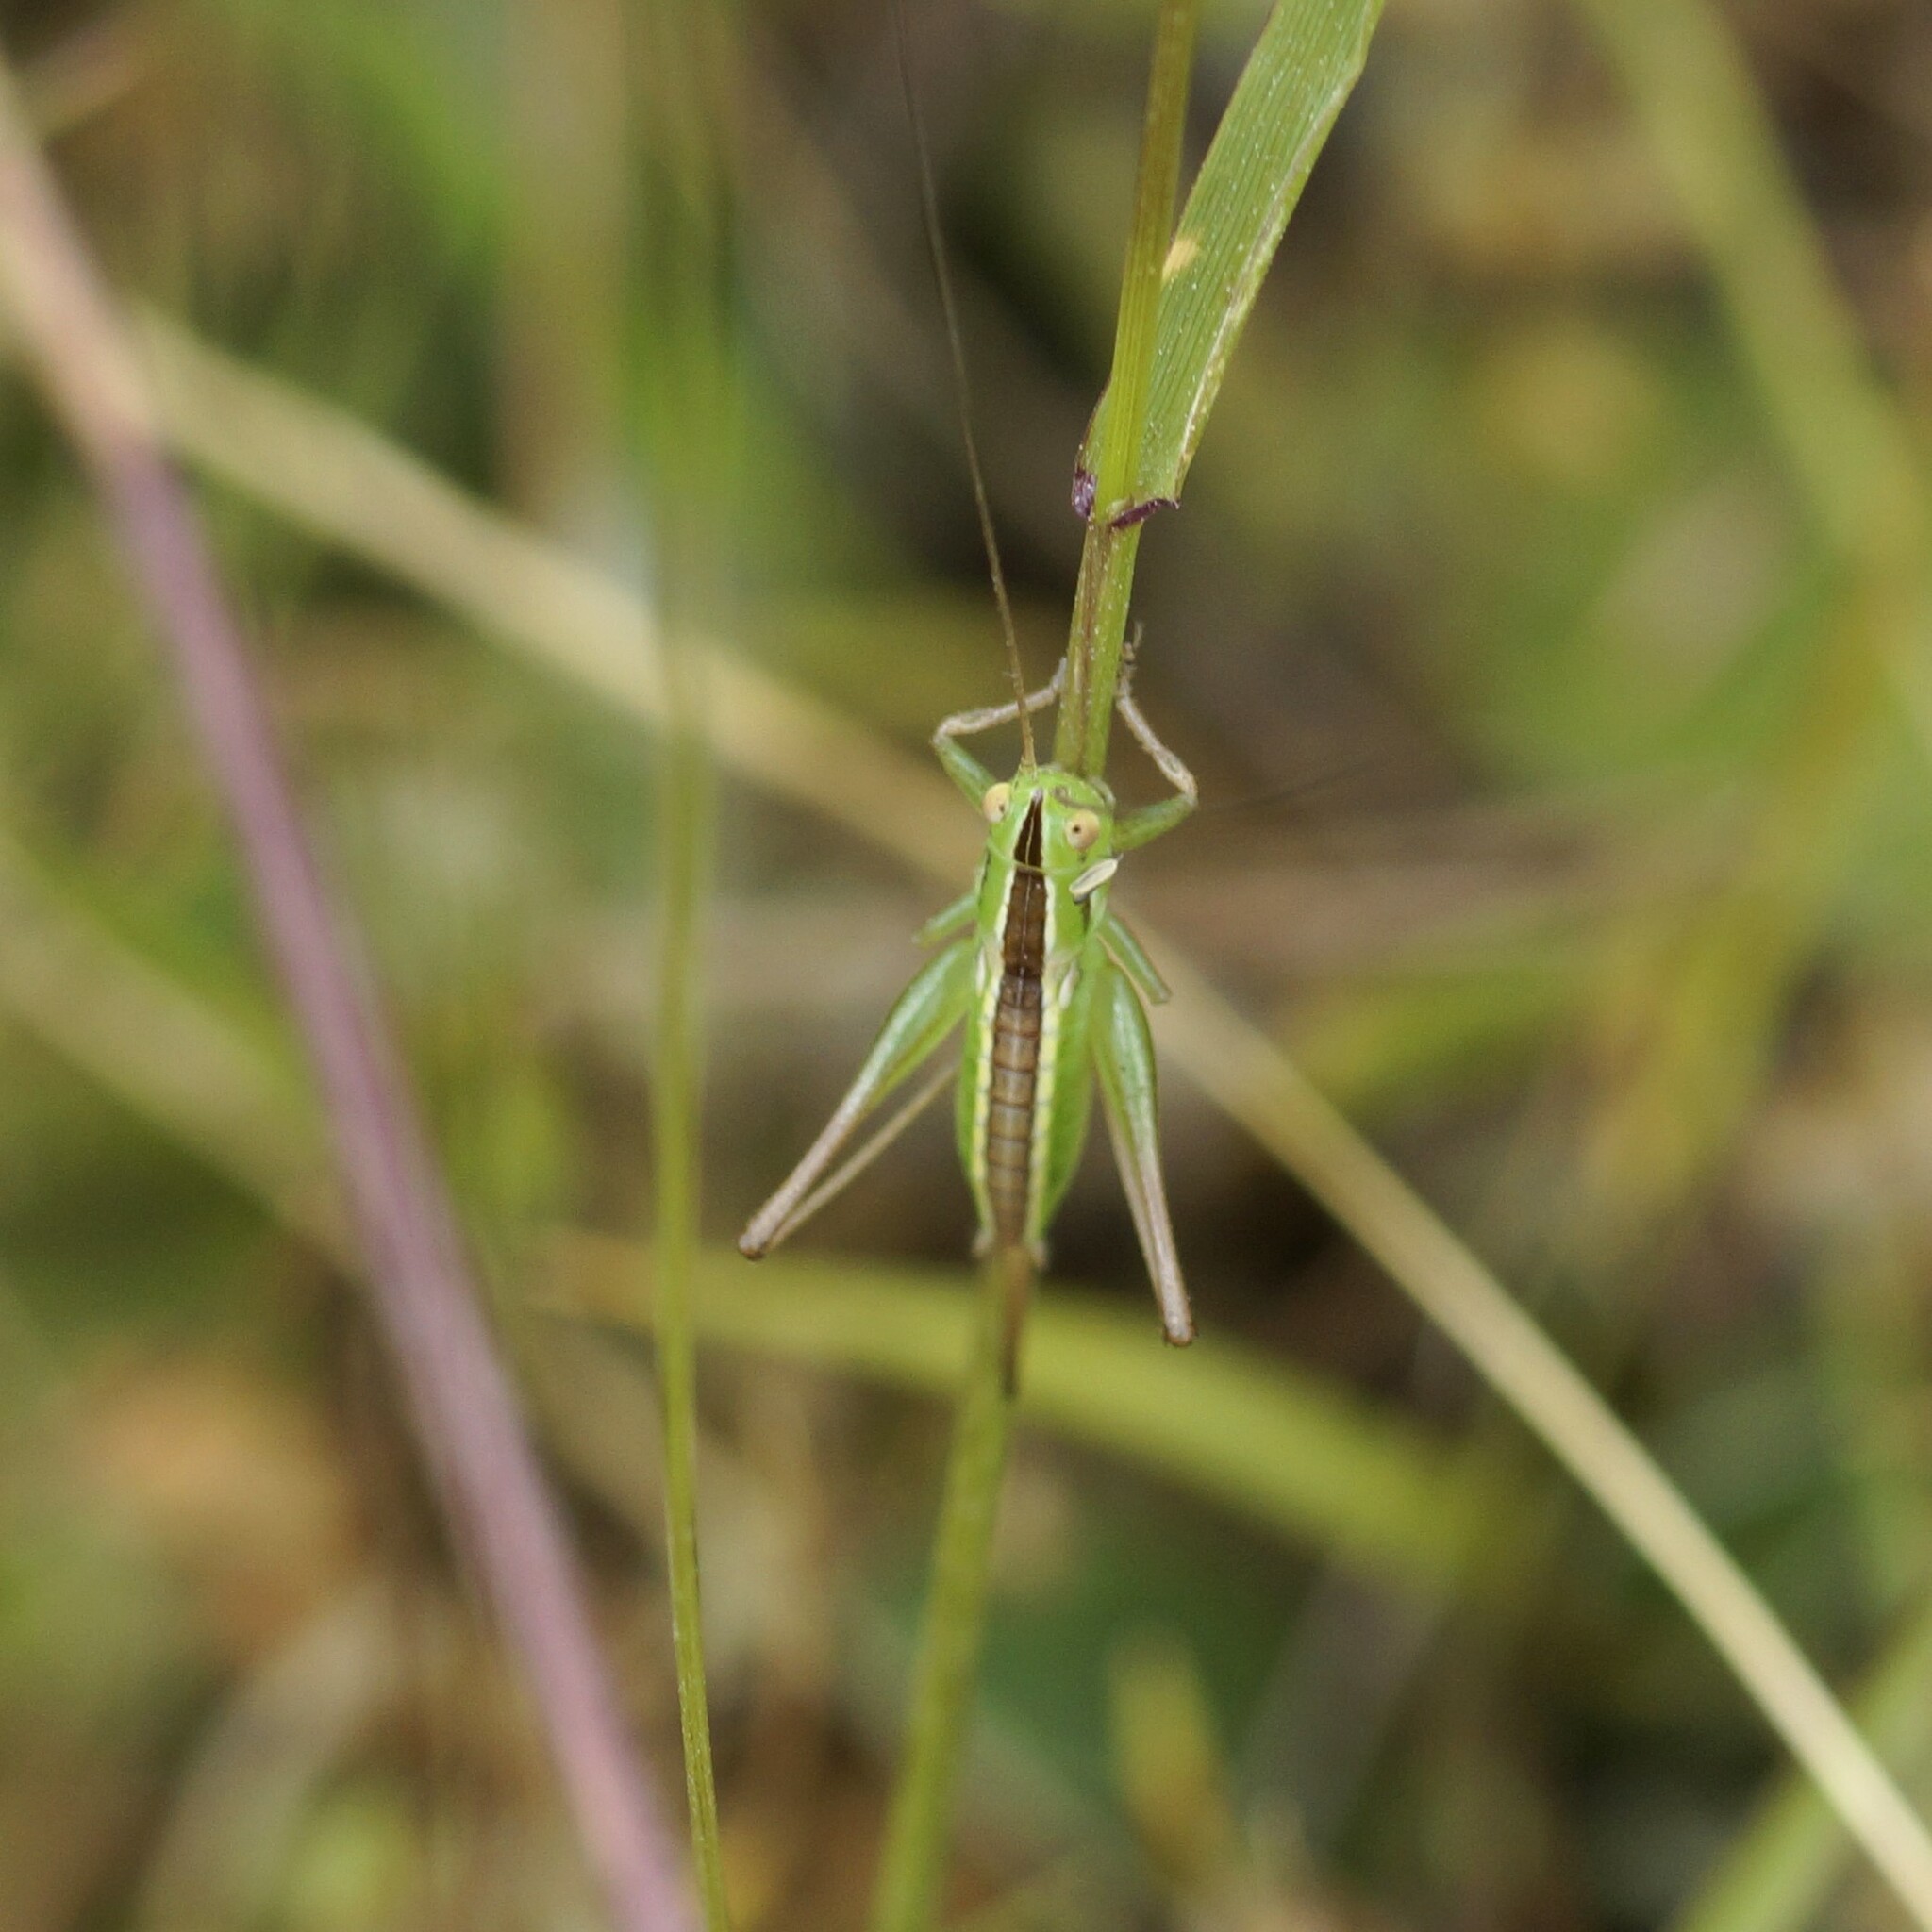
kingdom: Animalia
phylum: Arthropoda
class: Insecta
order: Orthoptera
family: Tettigoniidae
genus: Conocephalus
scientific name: Conocephalus bilineatus
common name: Small meadow katydid
